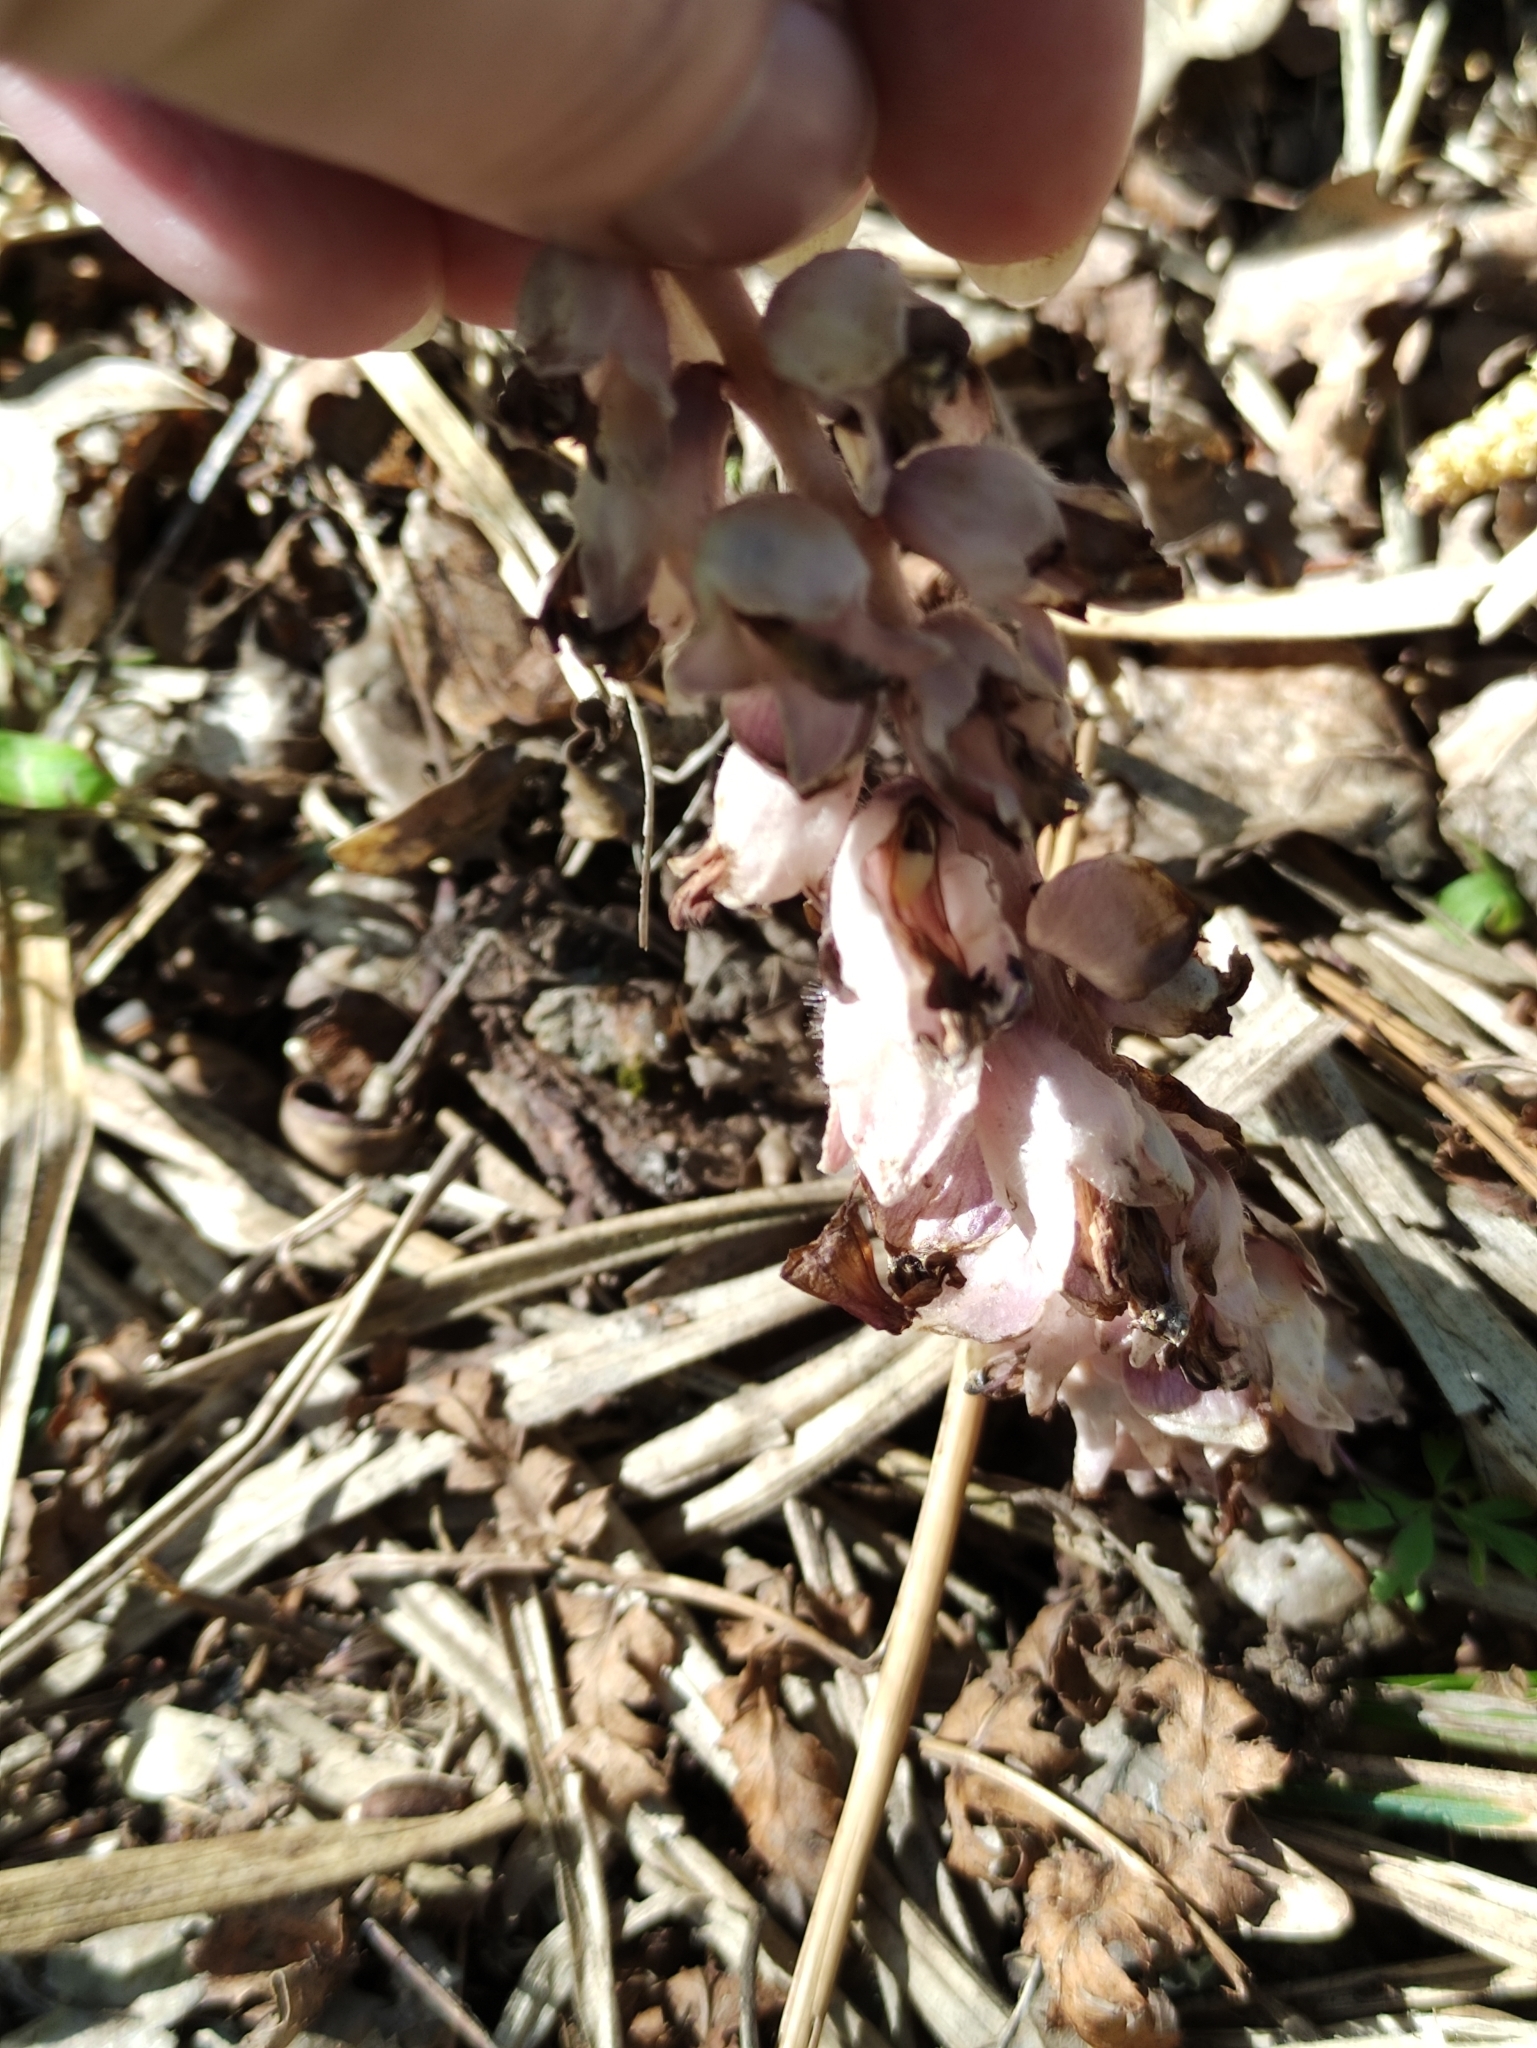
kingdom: Plantae
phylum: Tracheophyta
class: Magnoliopsida
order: Lamiales
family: Orobanchaceae
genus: Lathraea
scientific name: Lathraea squamaria
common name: Toothwort
